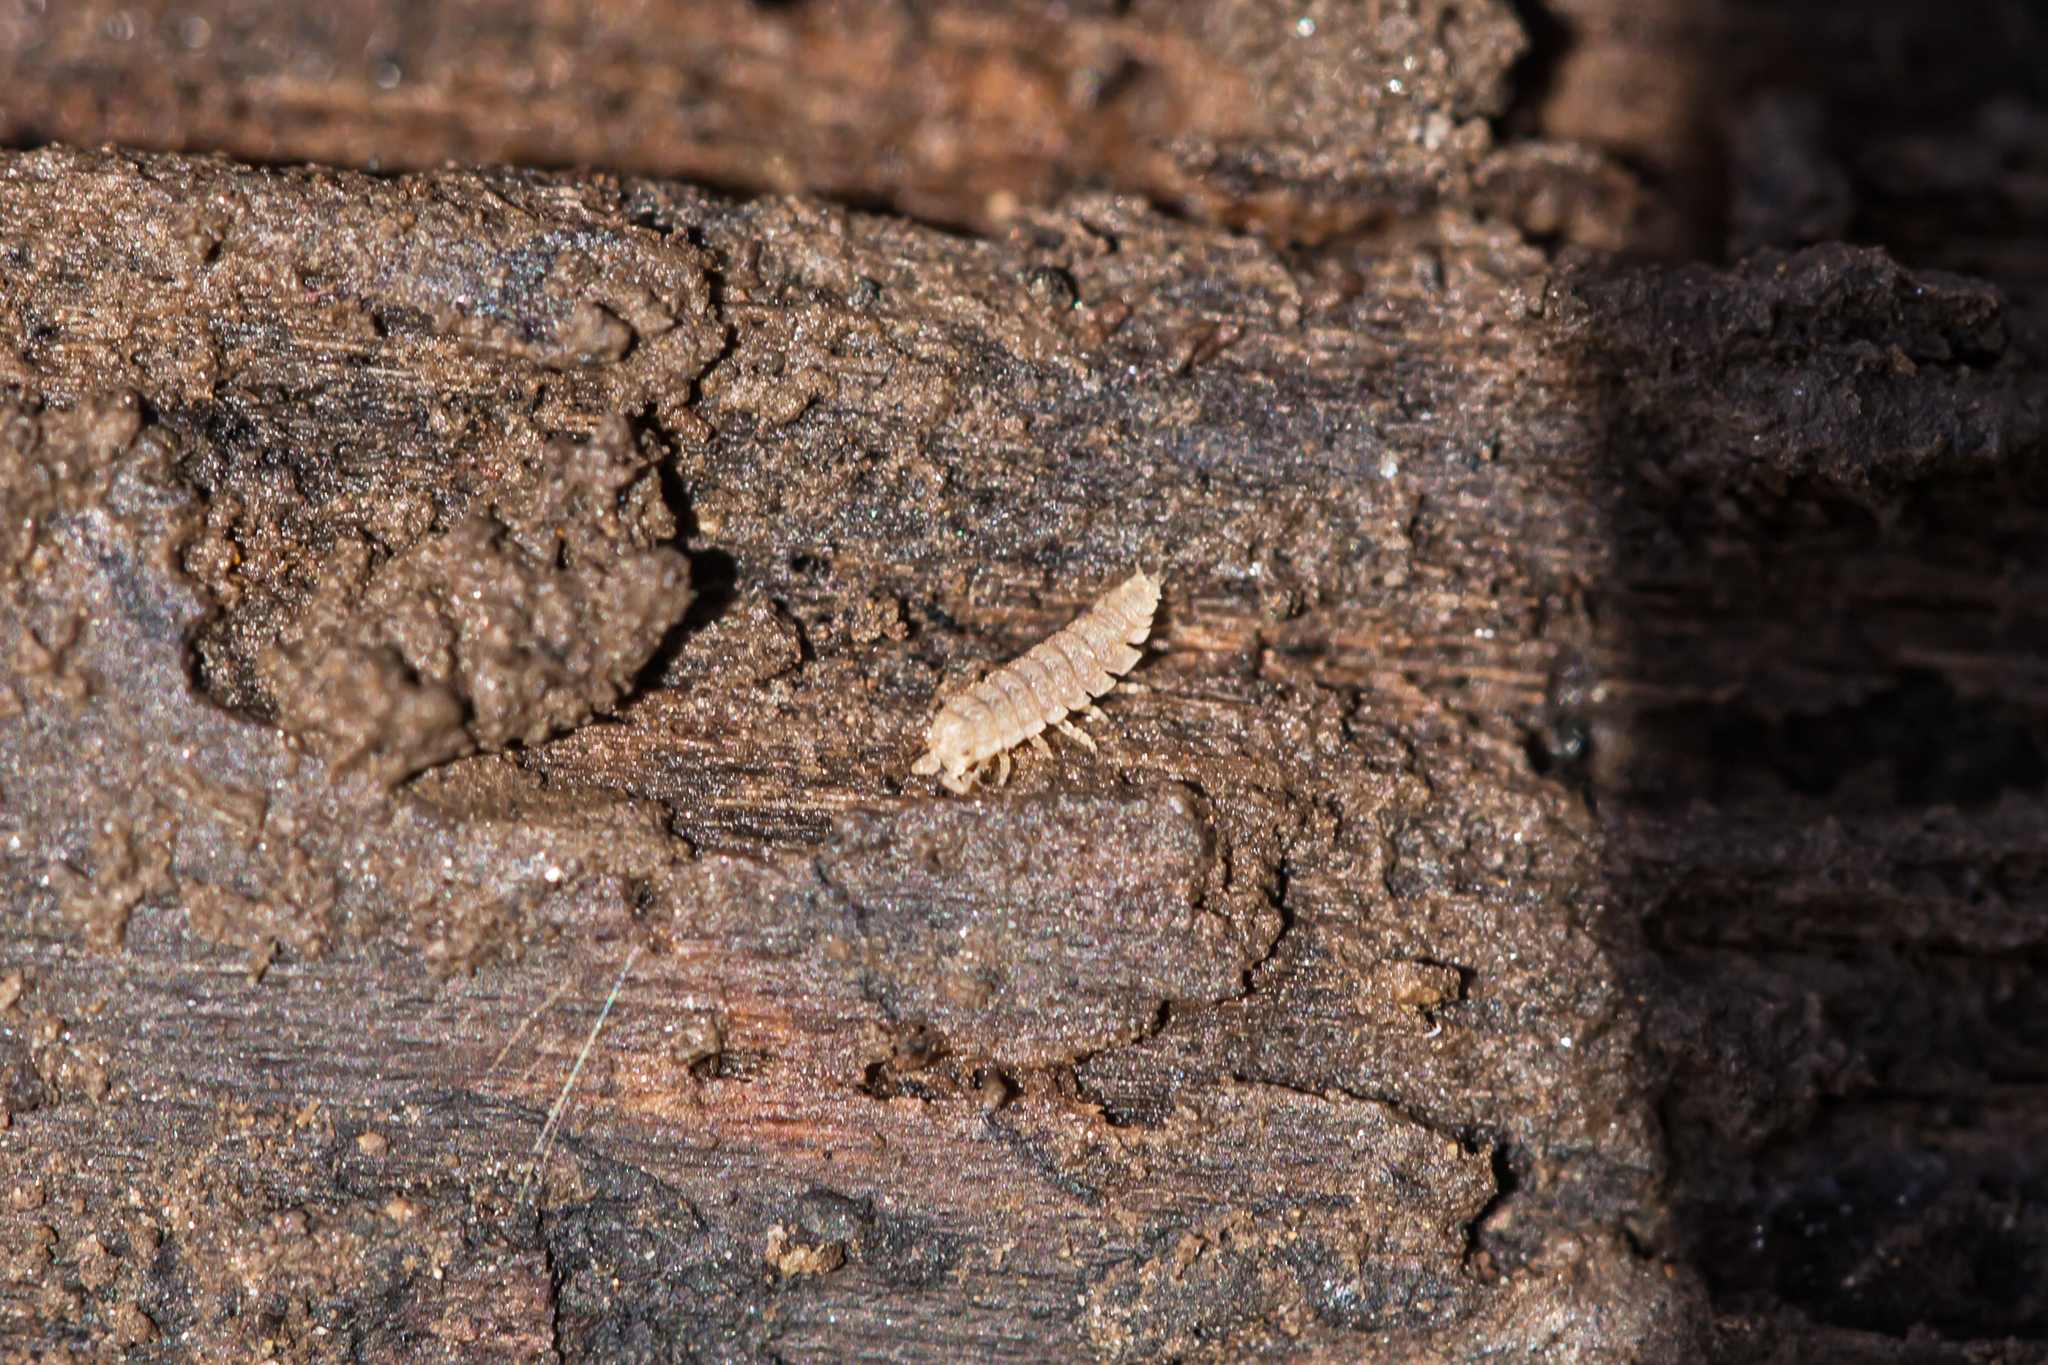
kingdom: Animalia
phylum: Arthropoda
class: Malacostraca
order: Isopoda
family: Trichoniscidae
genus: Haplophthalmus
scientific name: Haplophthalmus danicus
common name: Pillbug
